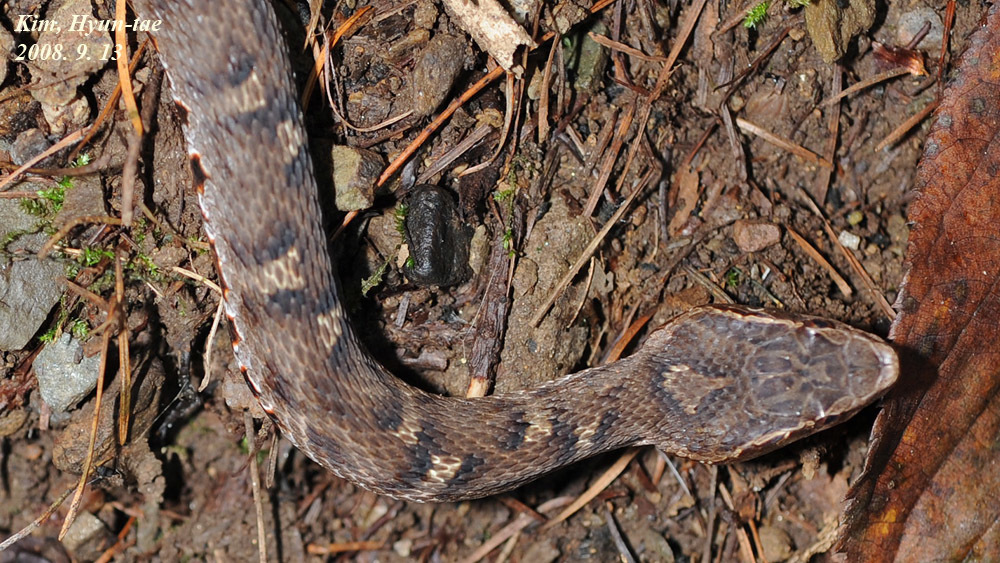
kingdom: Animalia
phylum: Chordata
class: Squamata
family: Viperidae
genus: Gloydius
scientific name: Gloydius ussuriensis
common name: Ussuri mamushi
